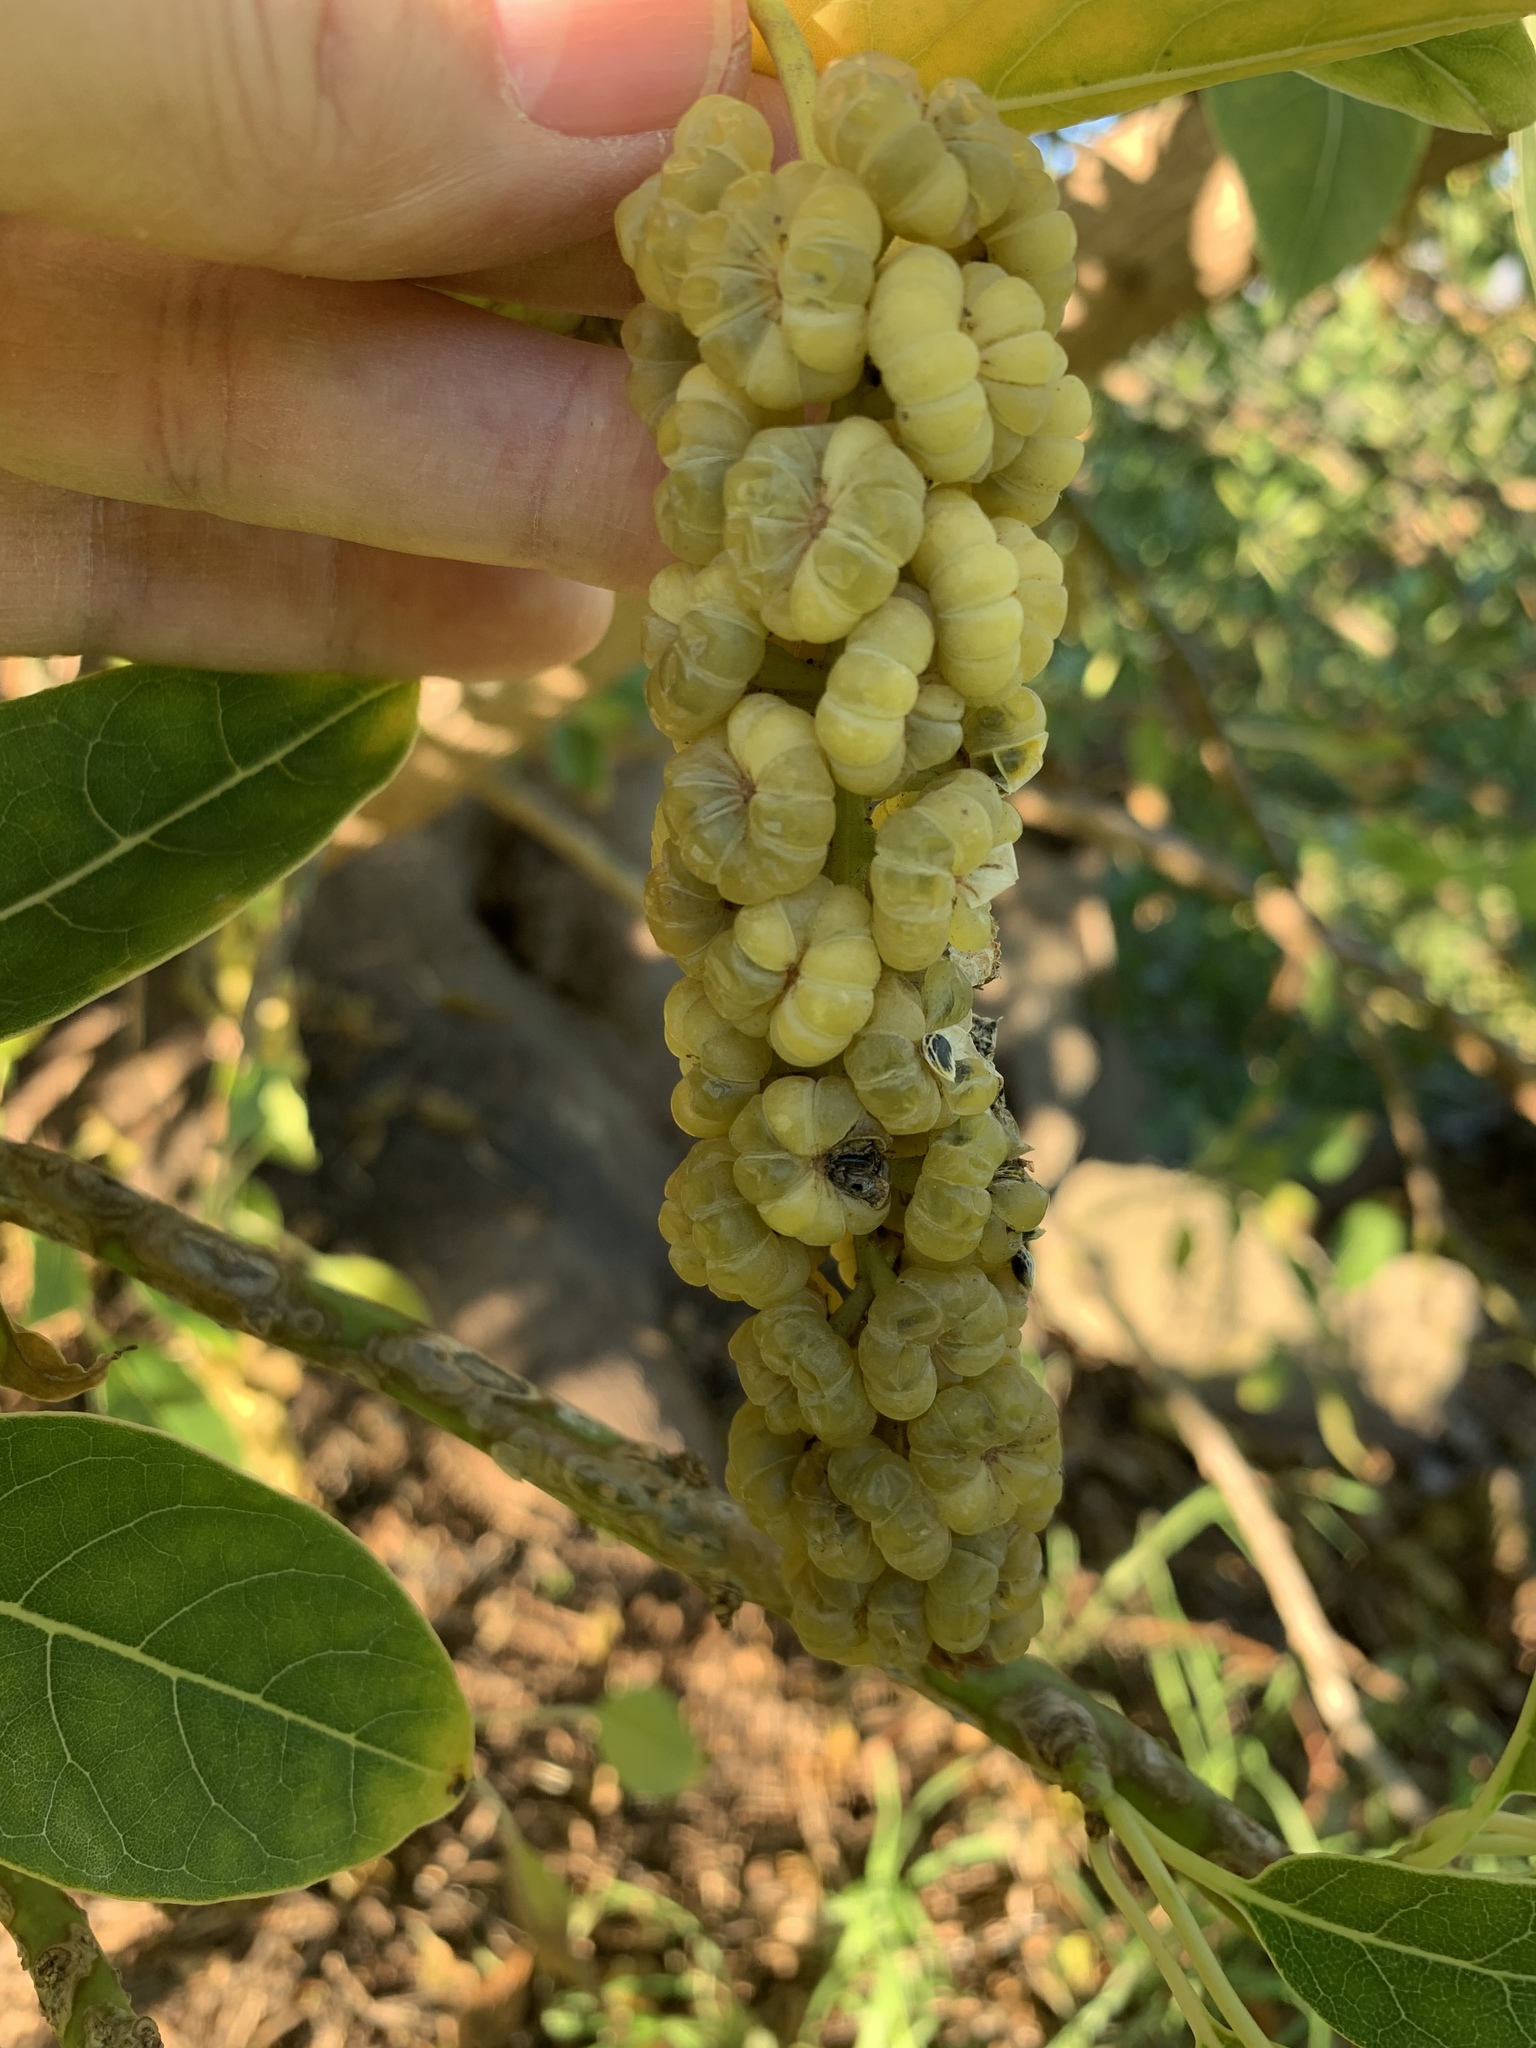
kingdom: Plantae
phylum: Tracheophyta
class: Magnoliopsida
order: Caryophyllales
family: Phytolaccaceae
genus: Phytolacca
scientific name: Phytolacca dioica
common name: Pokeweed
